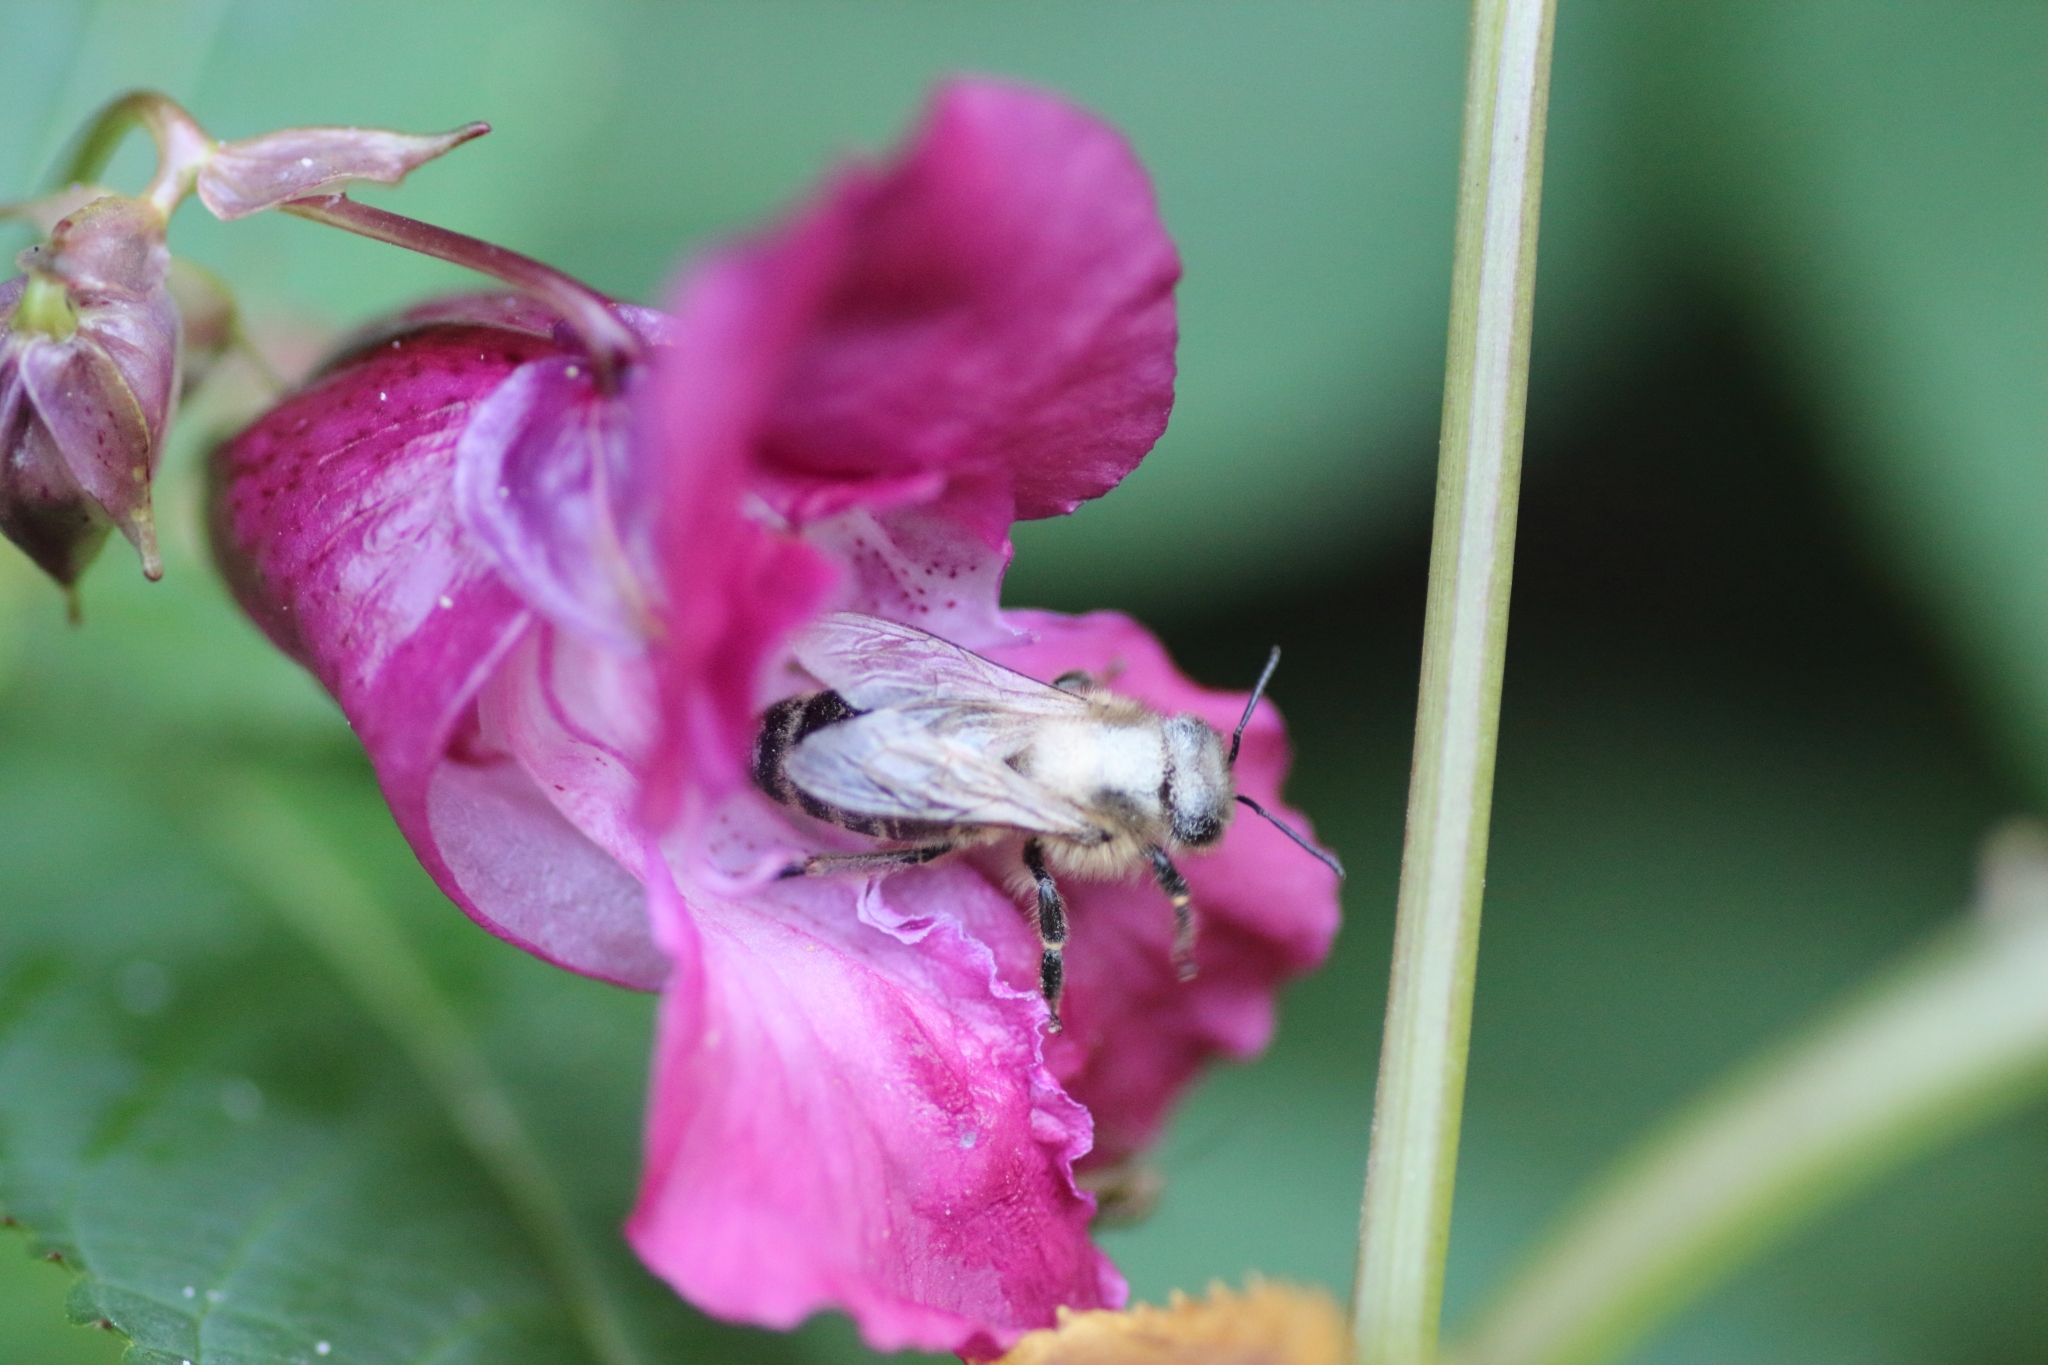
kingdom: Animalia
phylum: Arthropoda
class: Insecta
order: Hymenoptera
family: Apidae
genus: Apis
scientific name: Apis mellifera
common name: Honey bee
